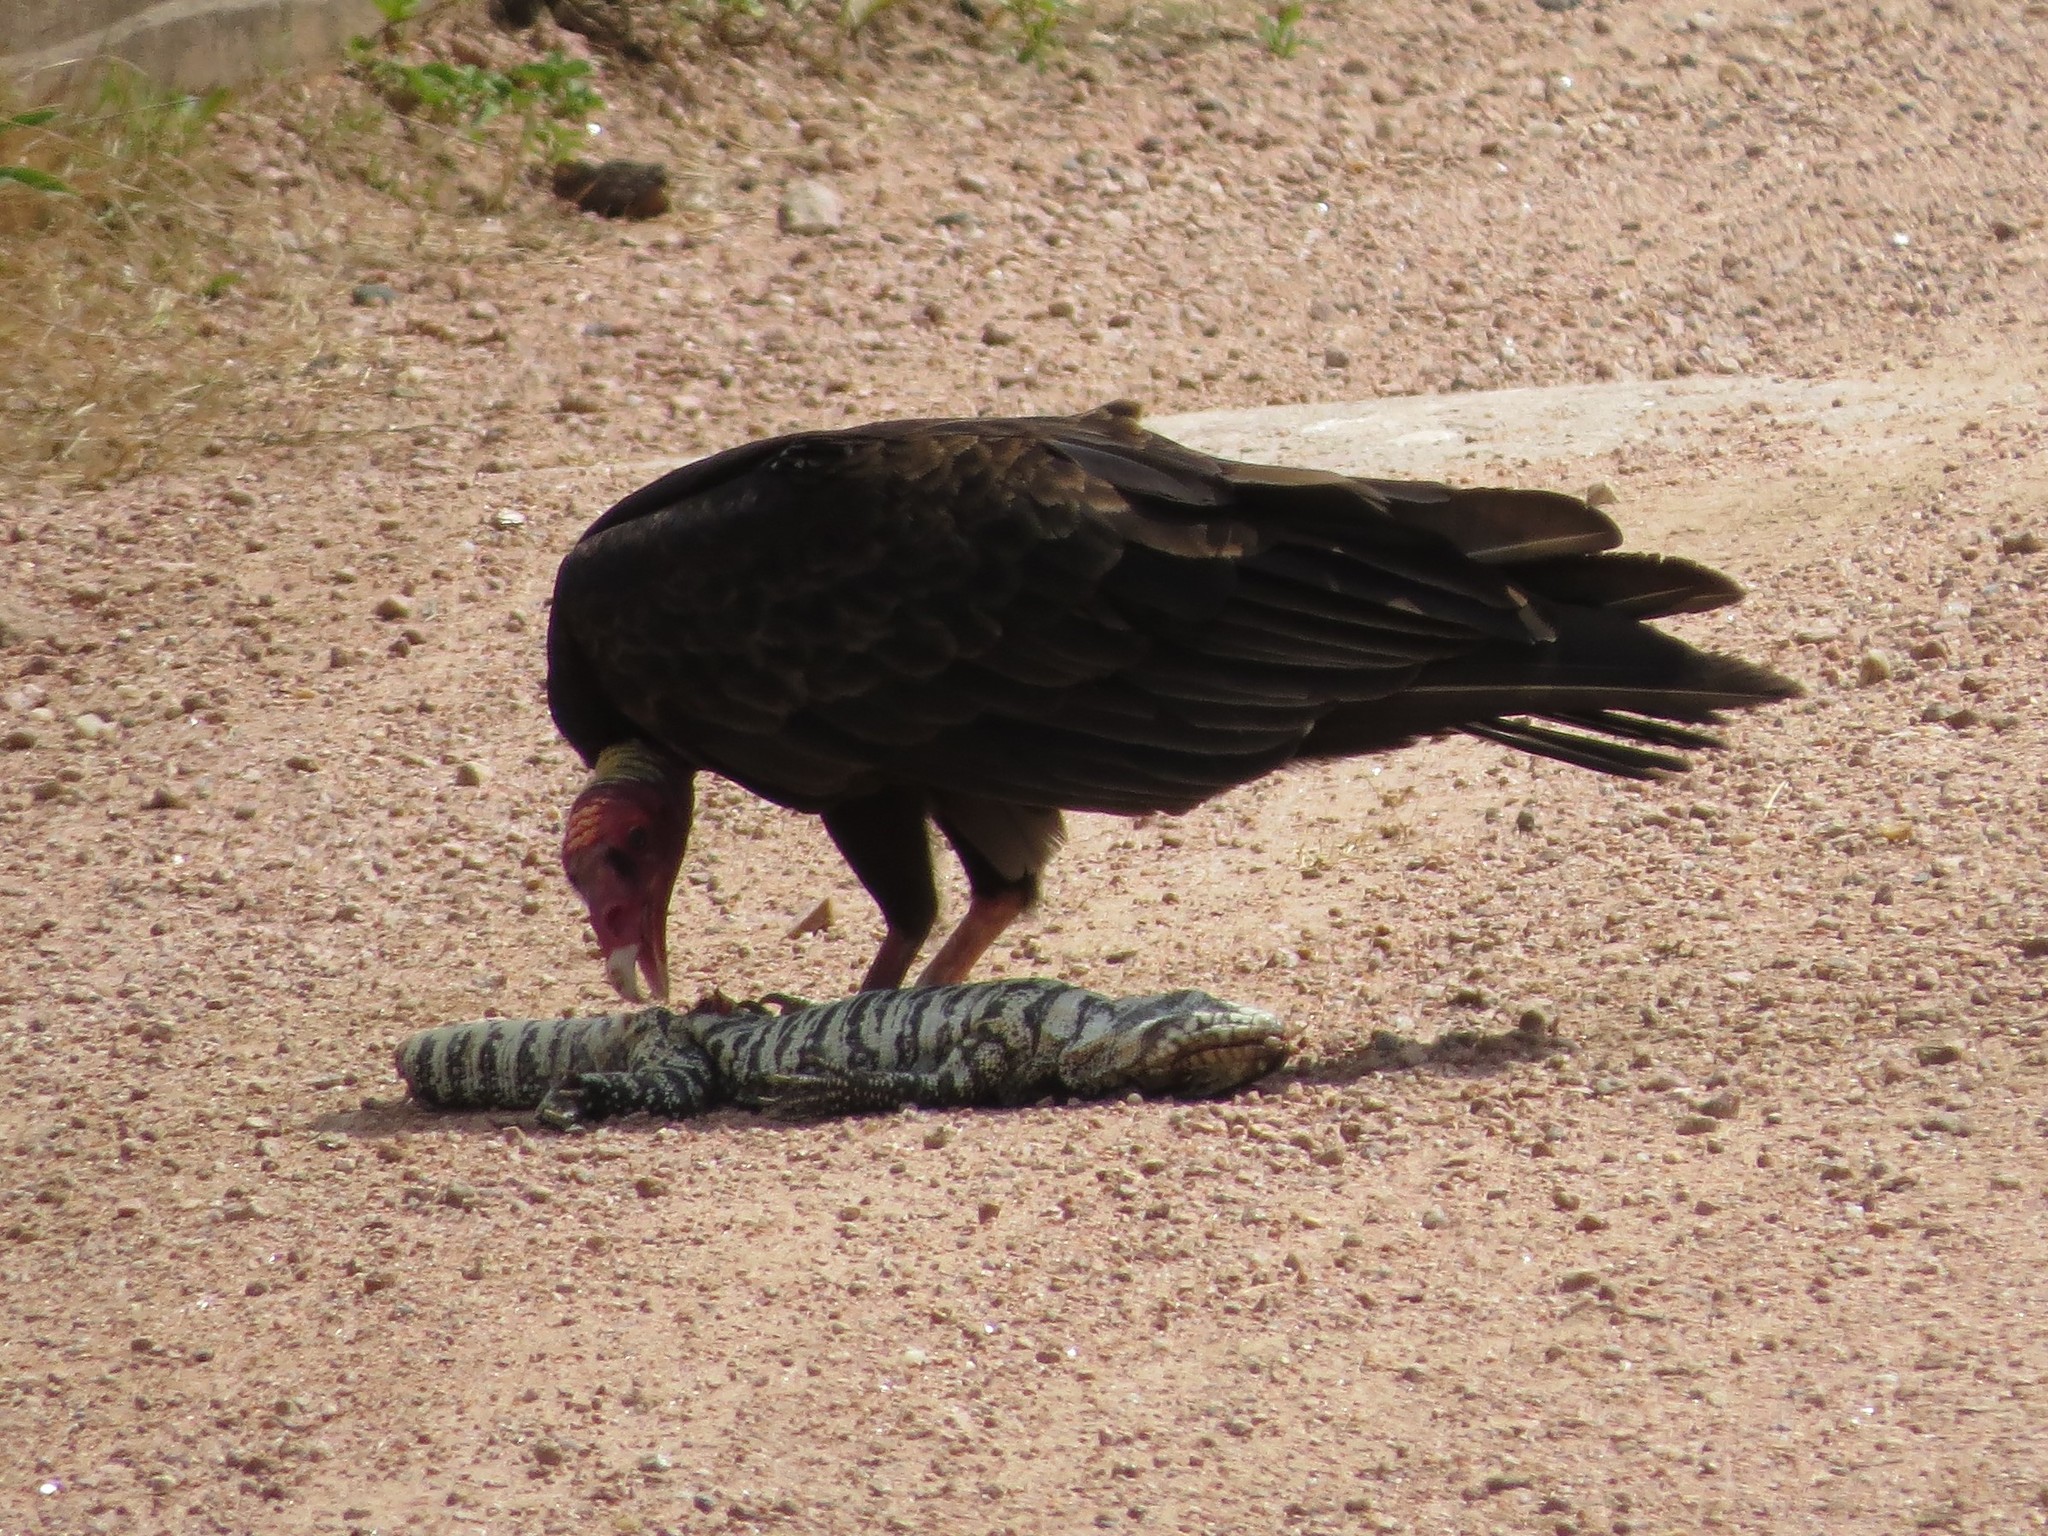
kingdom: Animalia
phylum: Chordata
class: Aves
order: Accipitriformes
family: Cathartidae
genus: Cathartes
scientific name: Cathartes aura
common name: Turkey vulture
